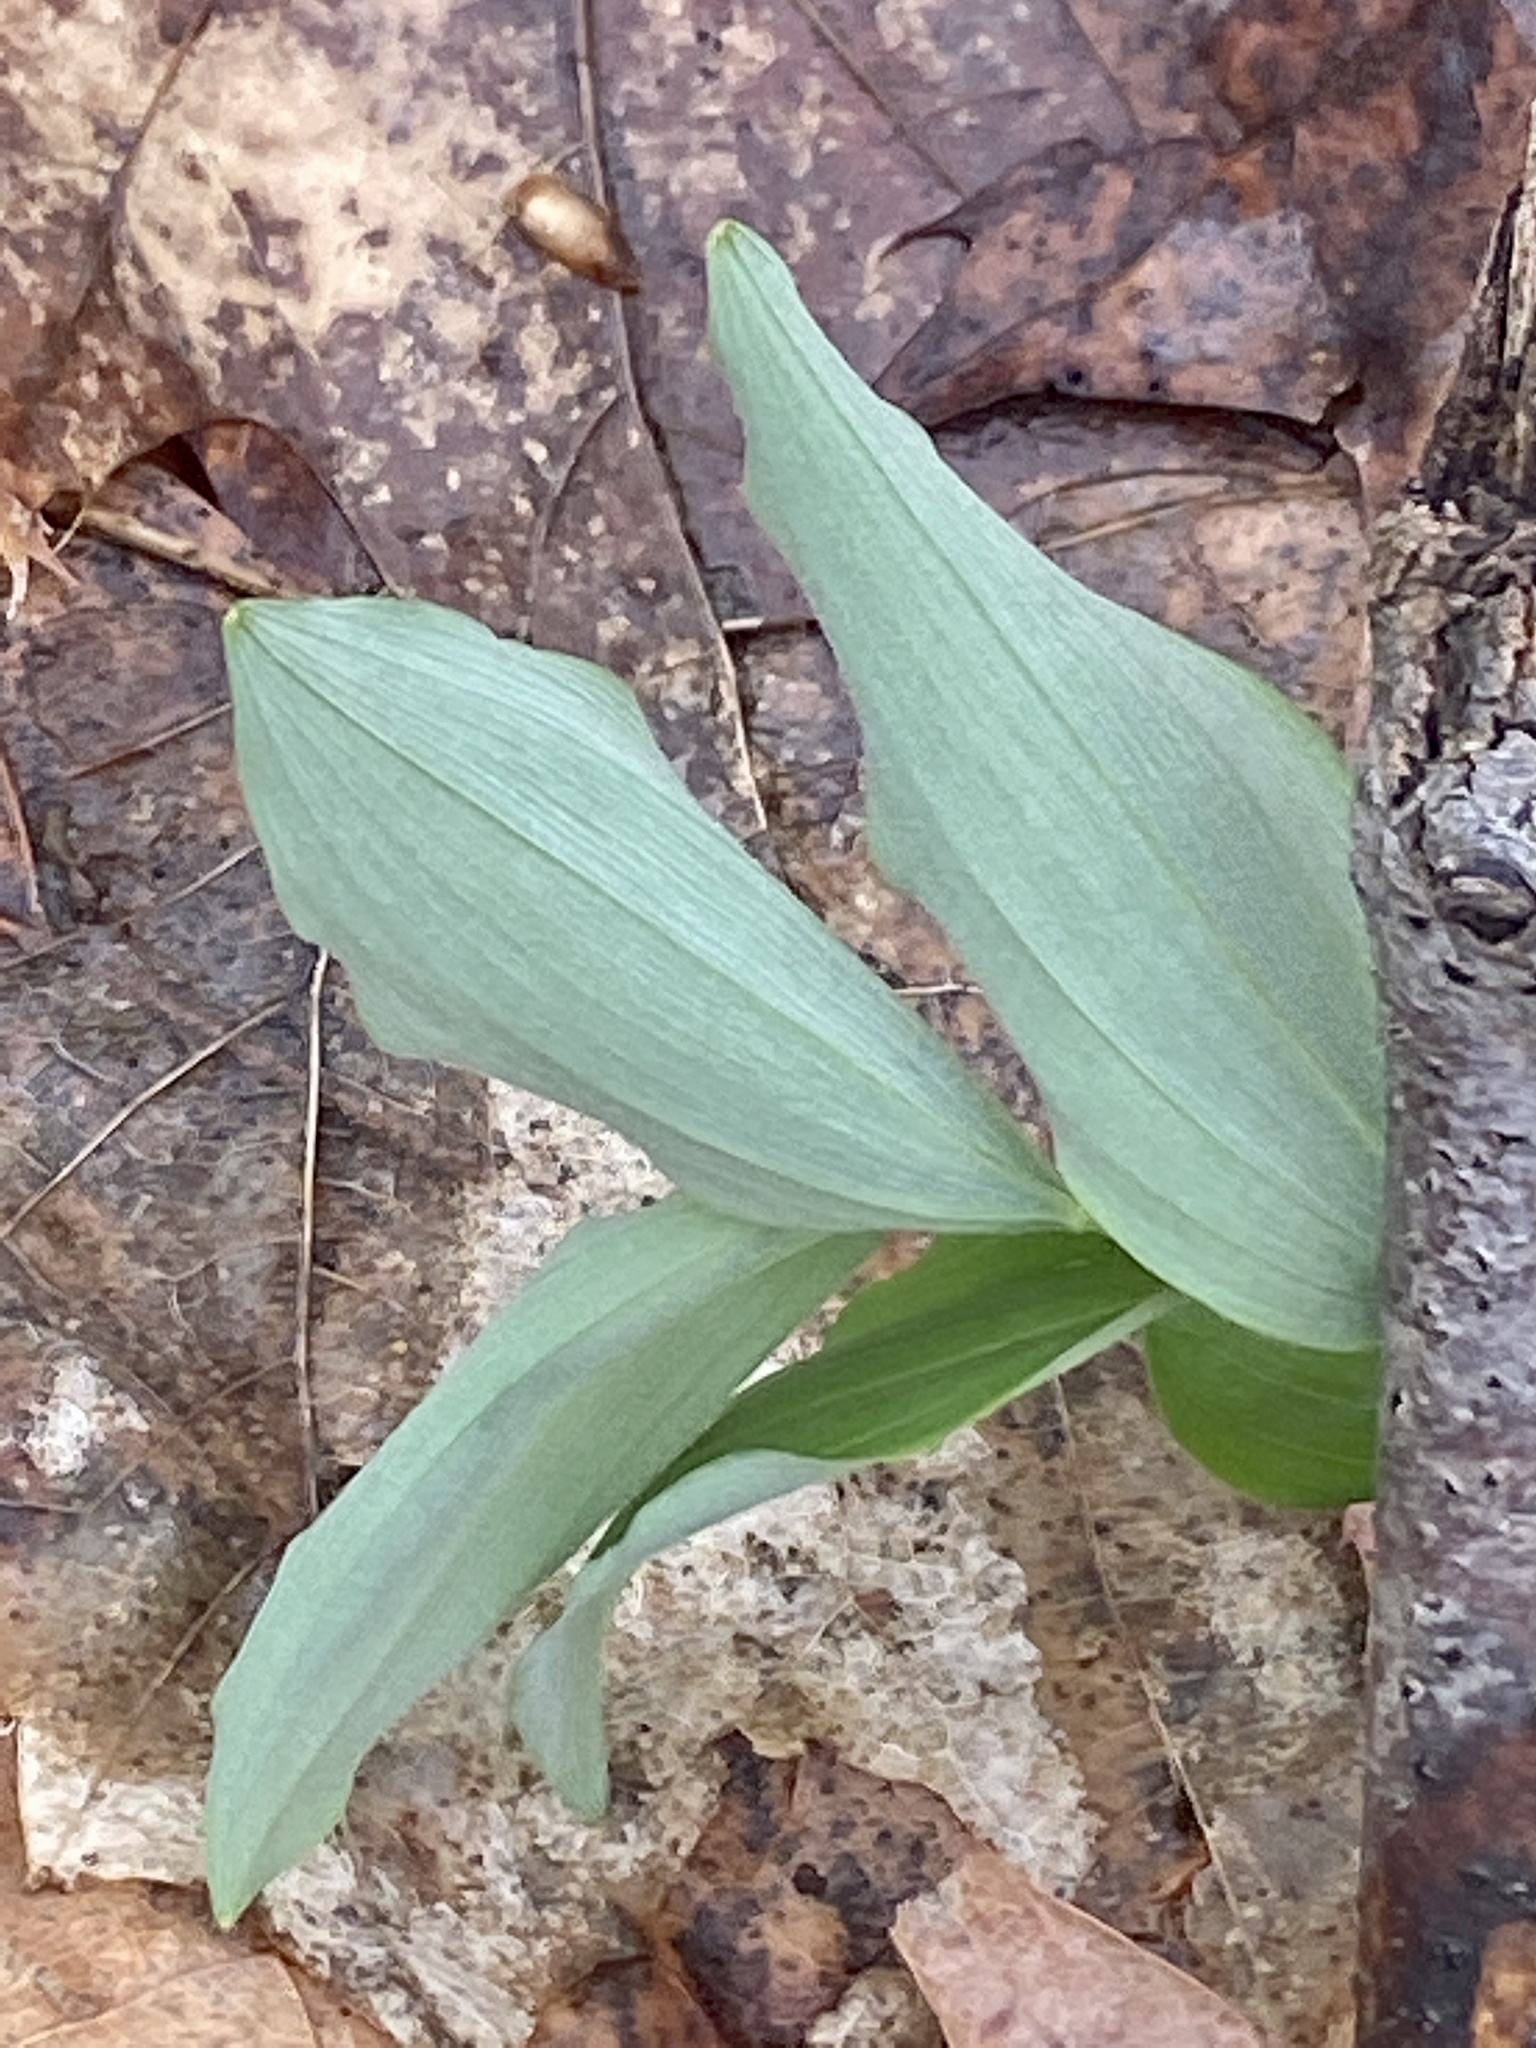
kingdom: Plantae
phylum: Tracheophyta
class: Liliopsida
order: Asparagales
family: Asparagaceae
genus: Polygonatum
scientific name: Polygonatum pubescens
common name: Downy solomon's seal
